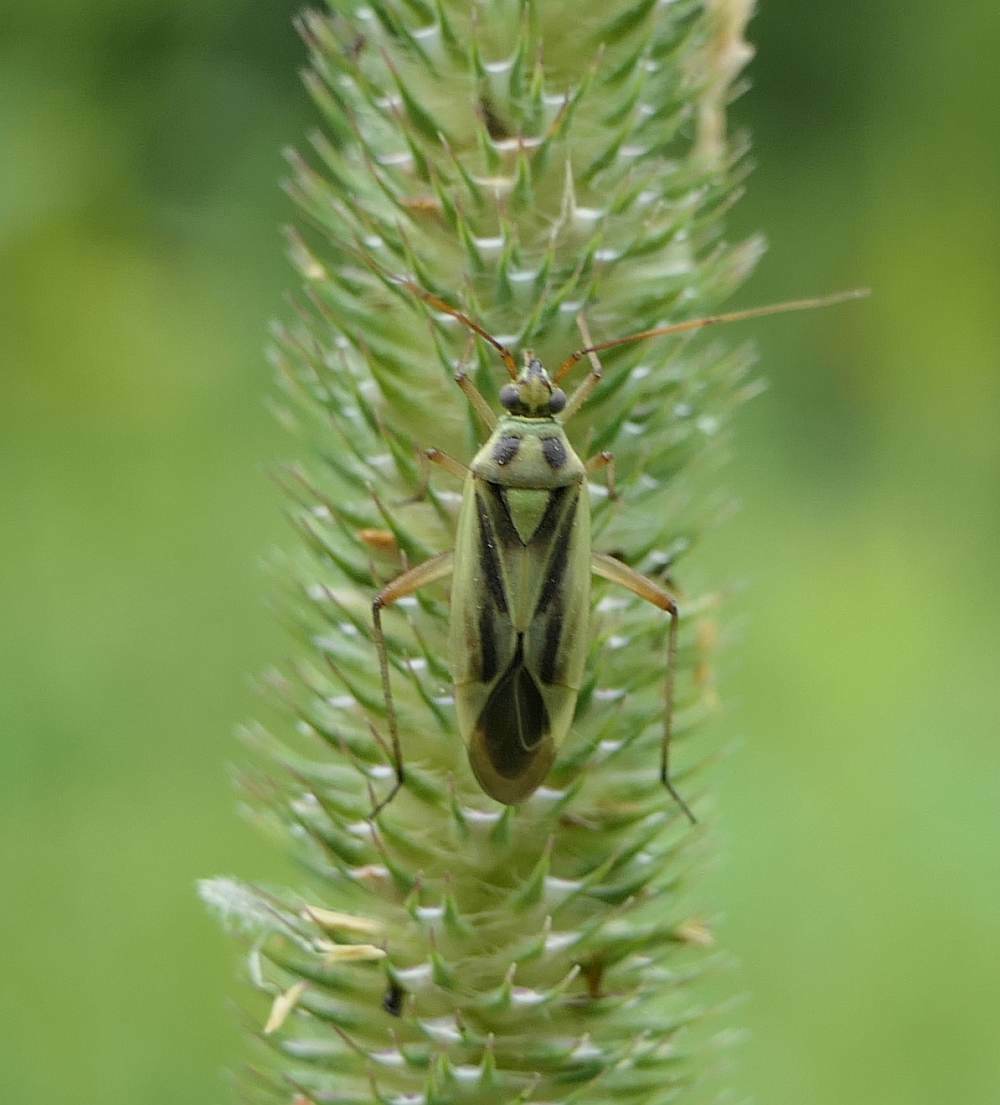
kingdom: Animalia
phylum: Arthropoda
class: Insecta
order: Hemiptera
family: Miridae
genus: Stenotus
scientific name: Stenotus binotatus
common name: Plant bug
